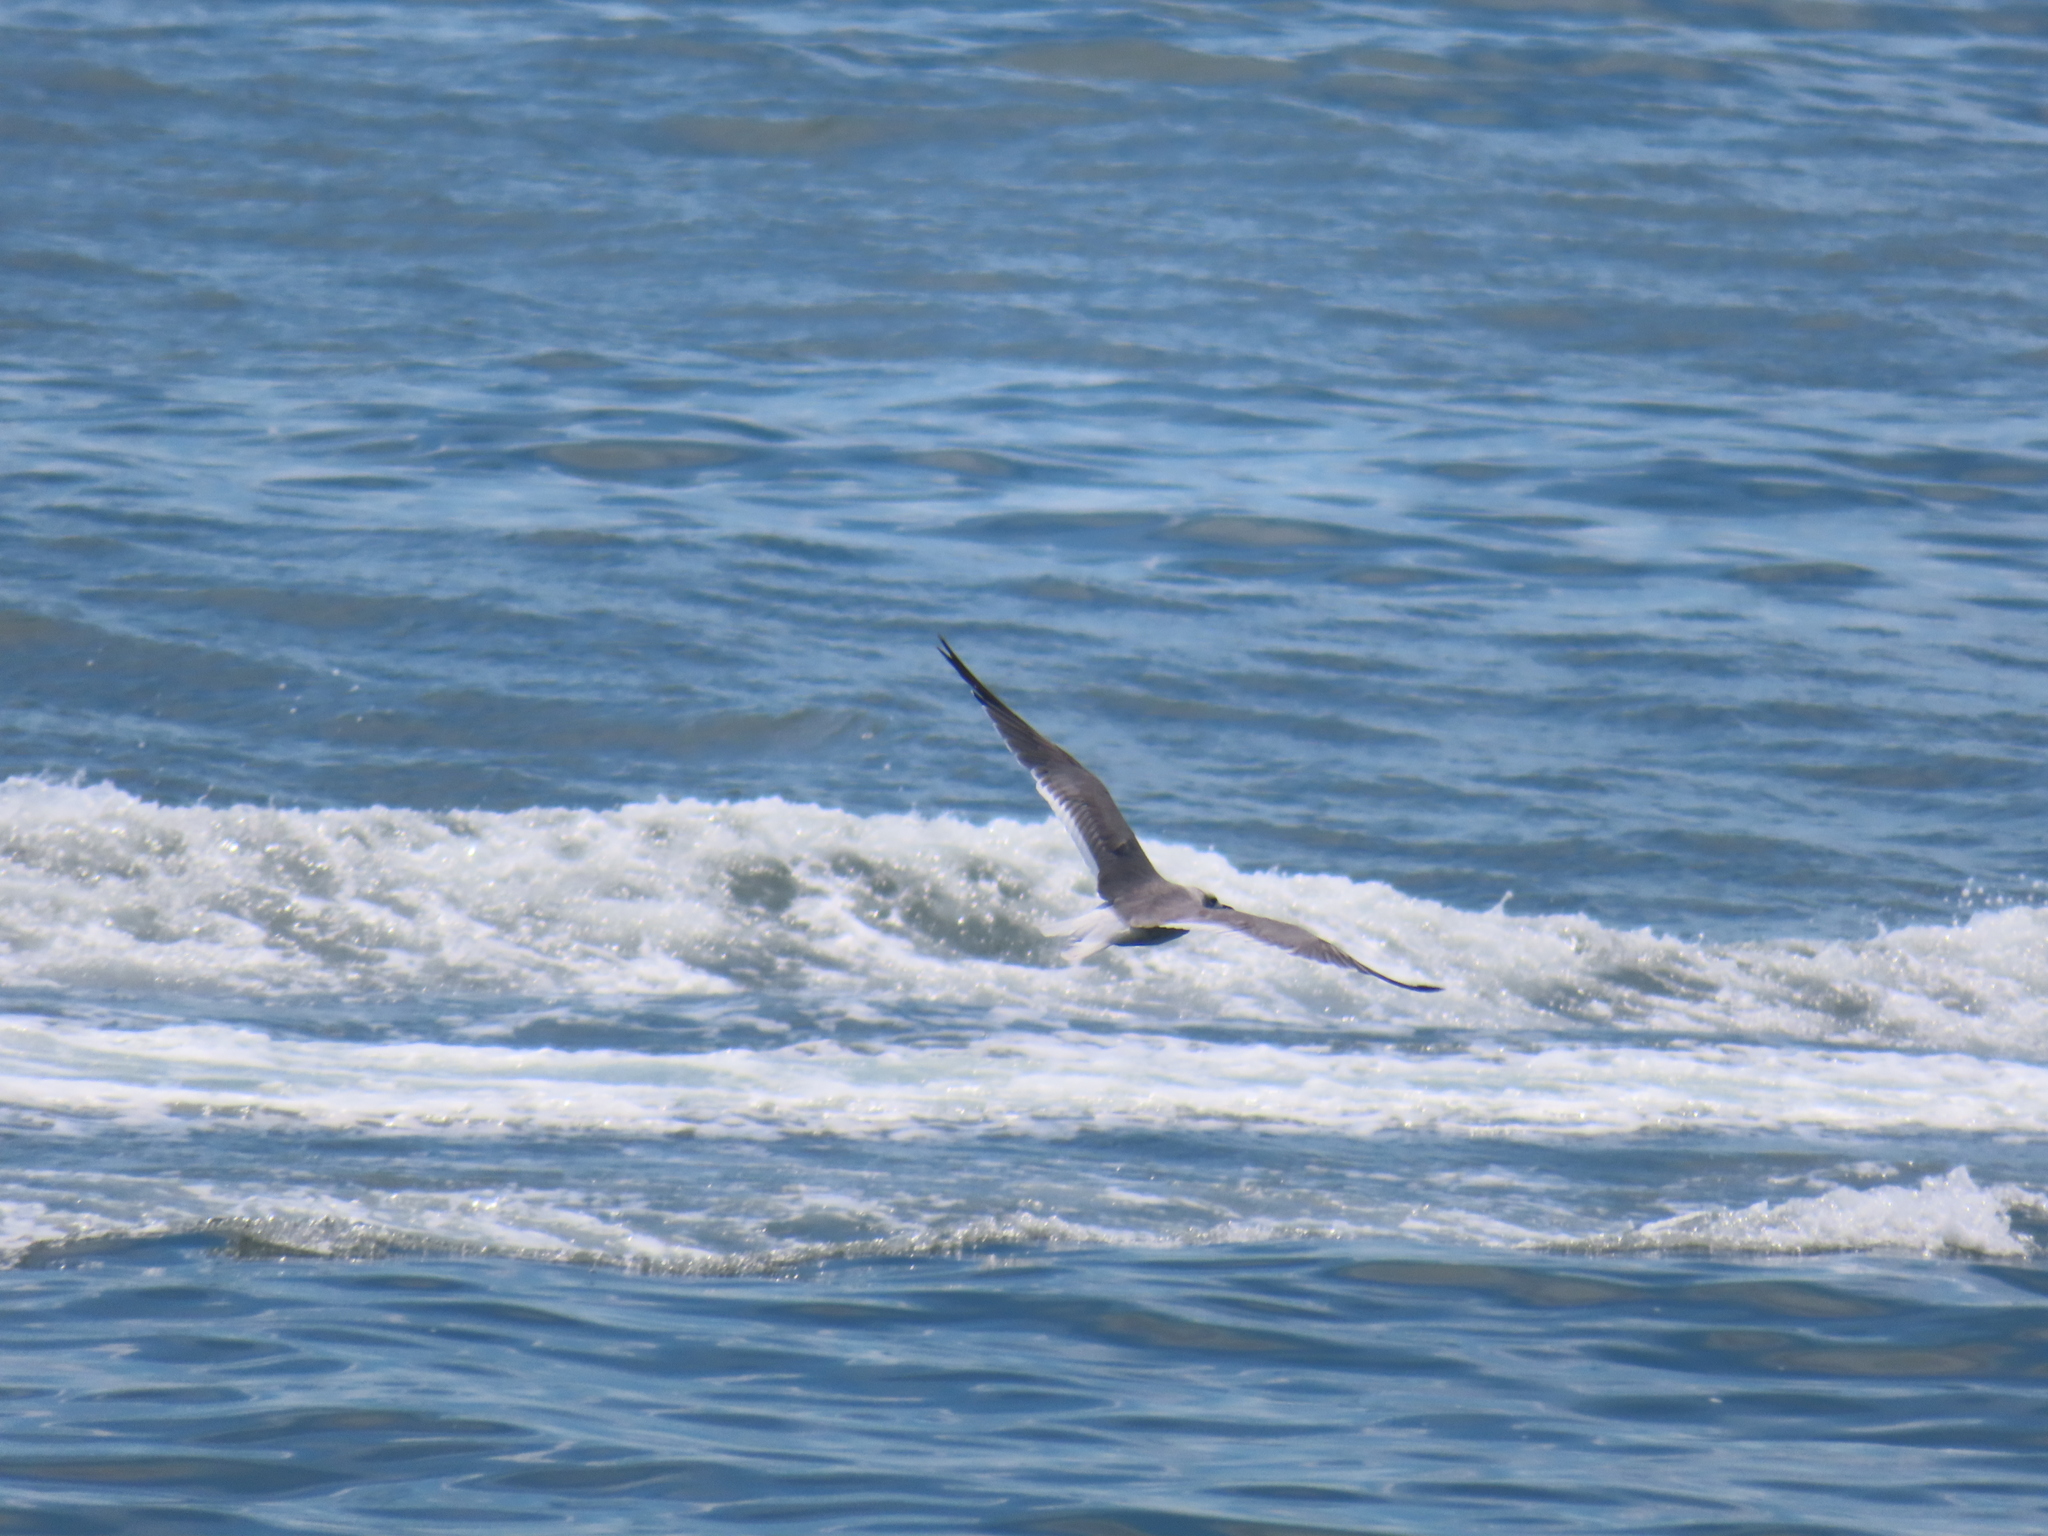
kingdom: Animalia
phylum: Chordata
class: Aves
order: Charadriiformes
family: Laridae
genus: Leucophaeus
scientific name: Leucophaeus atricilla
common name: Laughing gull
